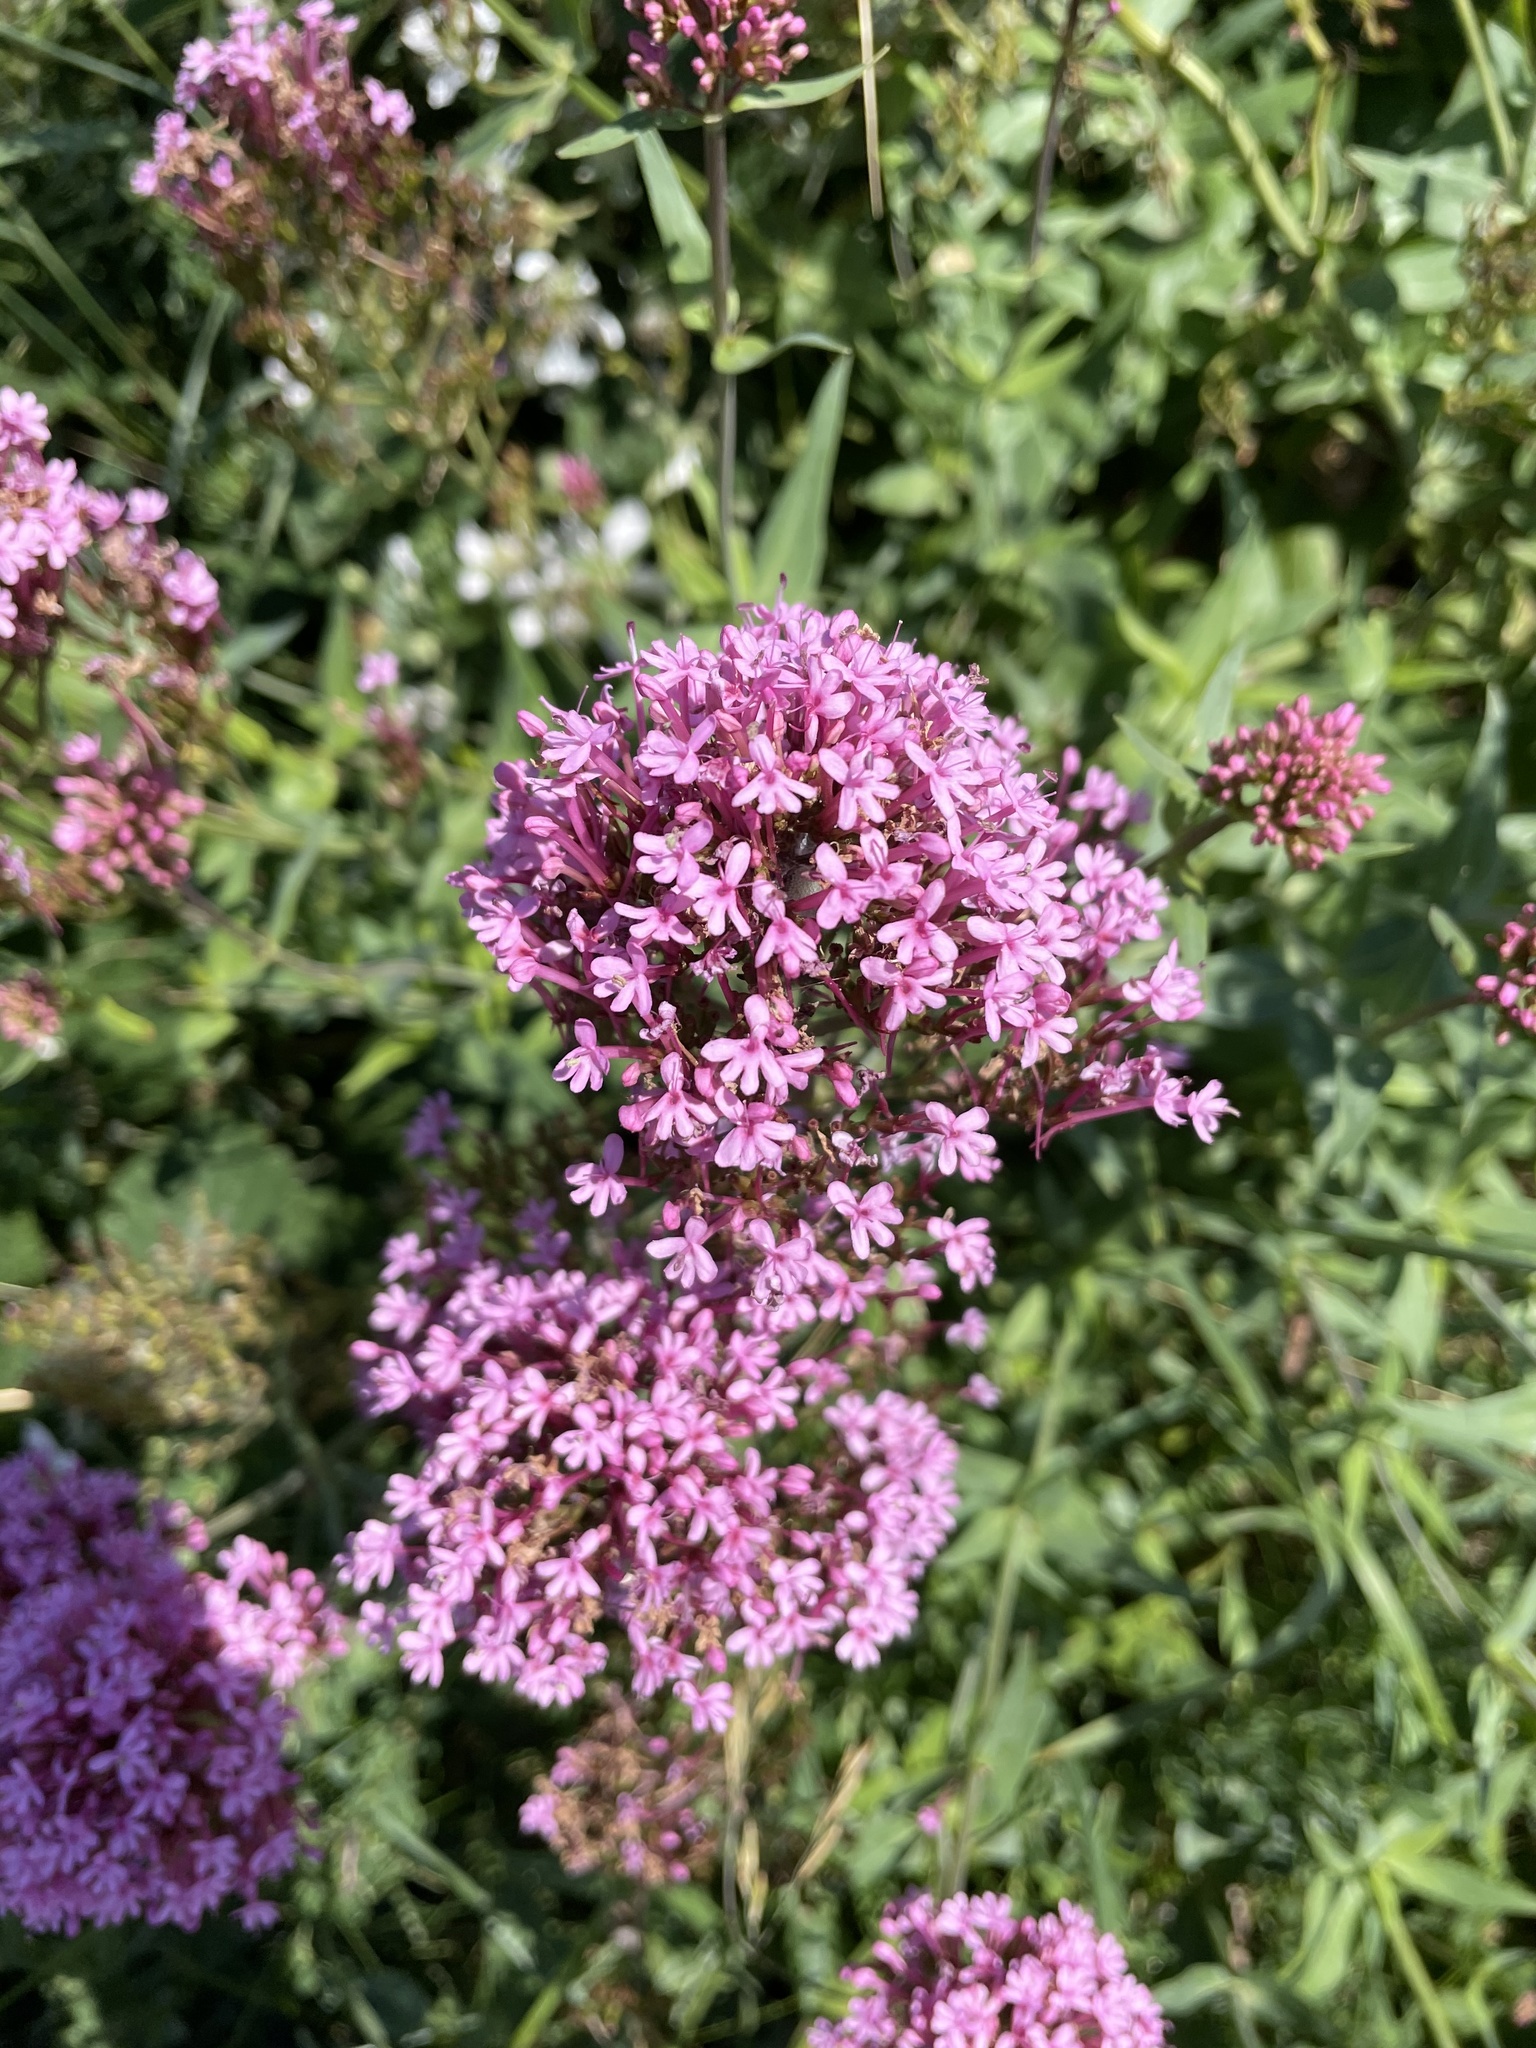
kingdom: Plantae
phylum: Tracheophyta
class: Magnoliopsida
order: Dipsacales
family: Caprifoliaceae
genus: Centranthus
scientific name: Centranthus ruber
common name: Red valerian
